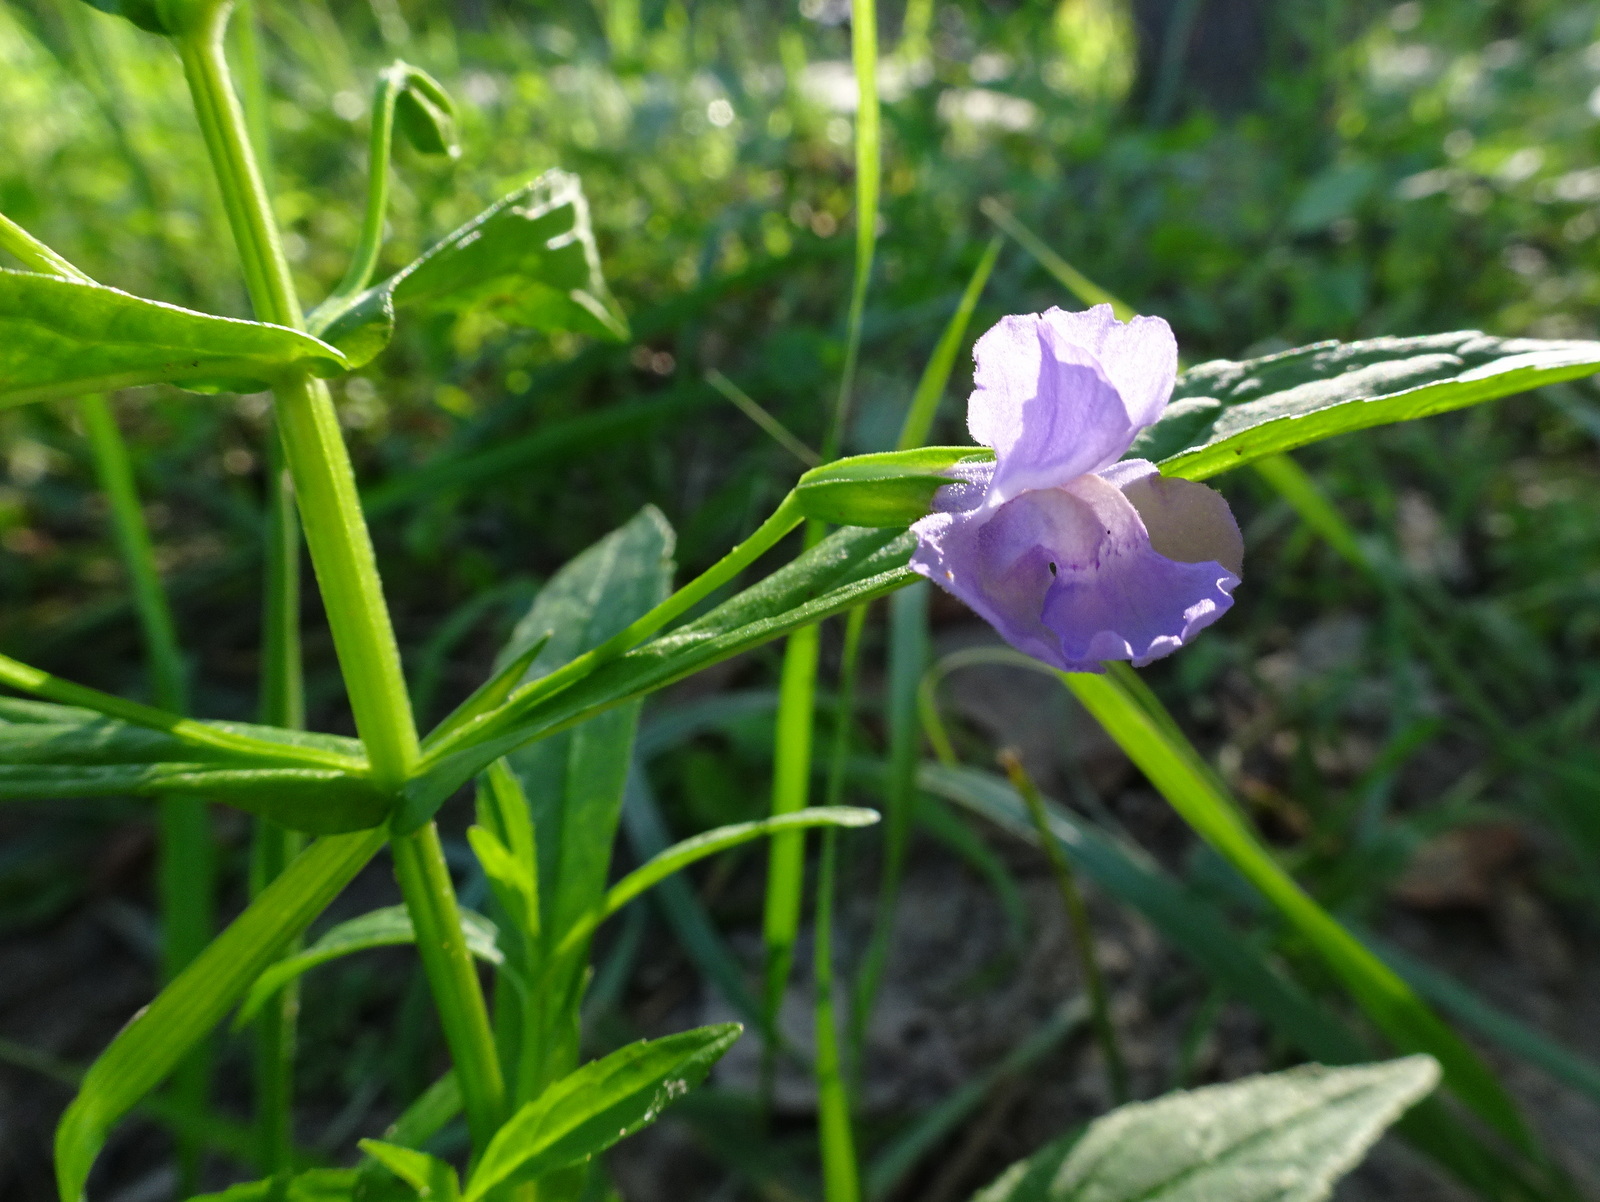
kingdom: Plantae
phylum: Tracheophyta
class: Magnoliopsida
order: Lamiales
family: Phrymaceae
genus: Mimulus
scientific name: Mimulus ringens
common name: Allegheny monkeyflower
